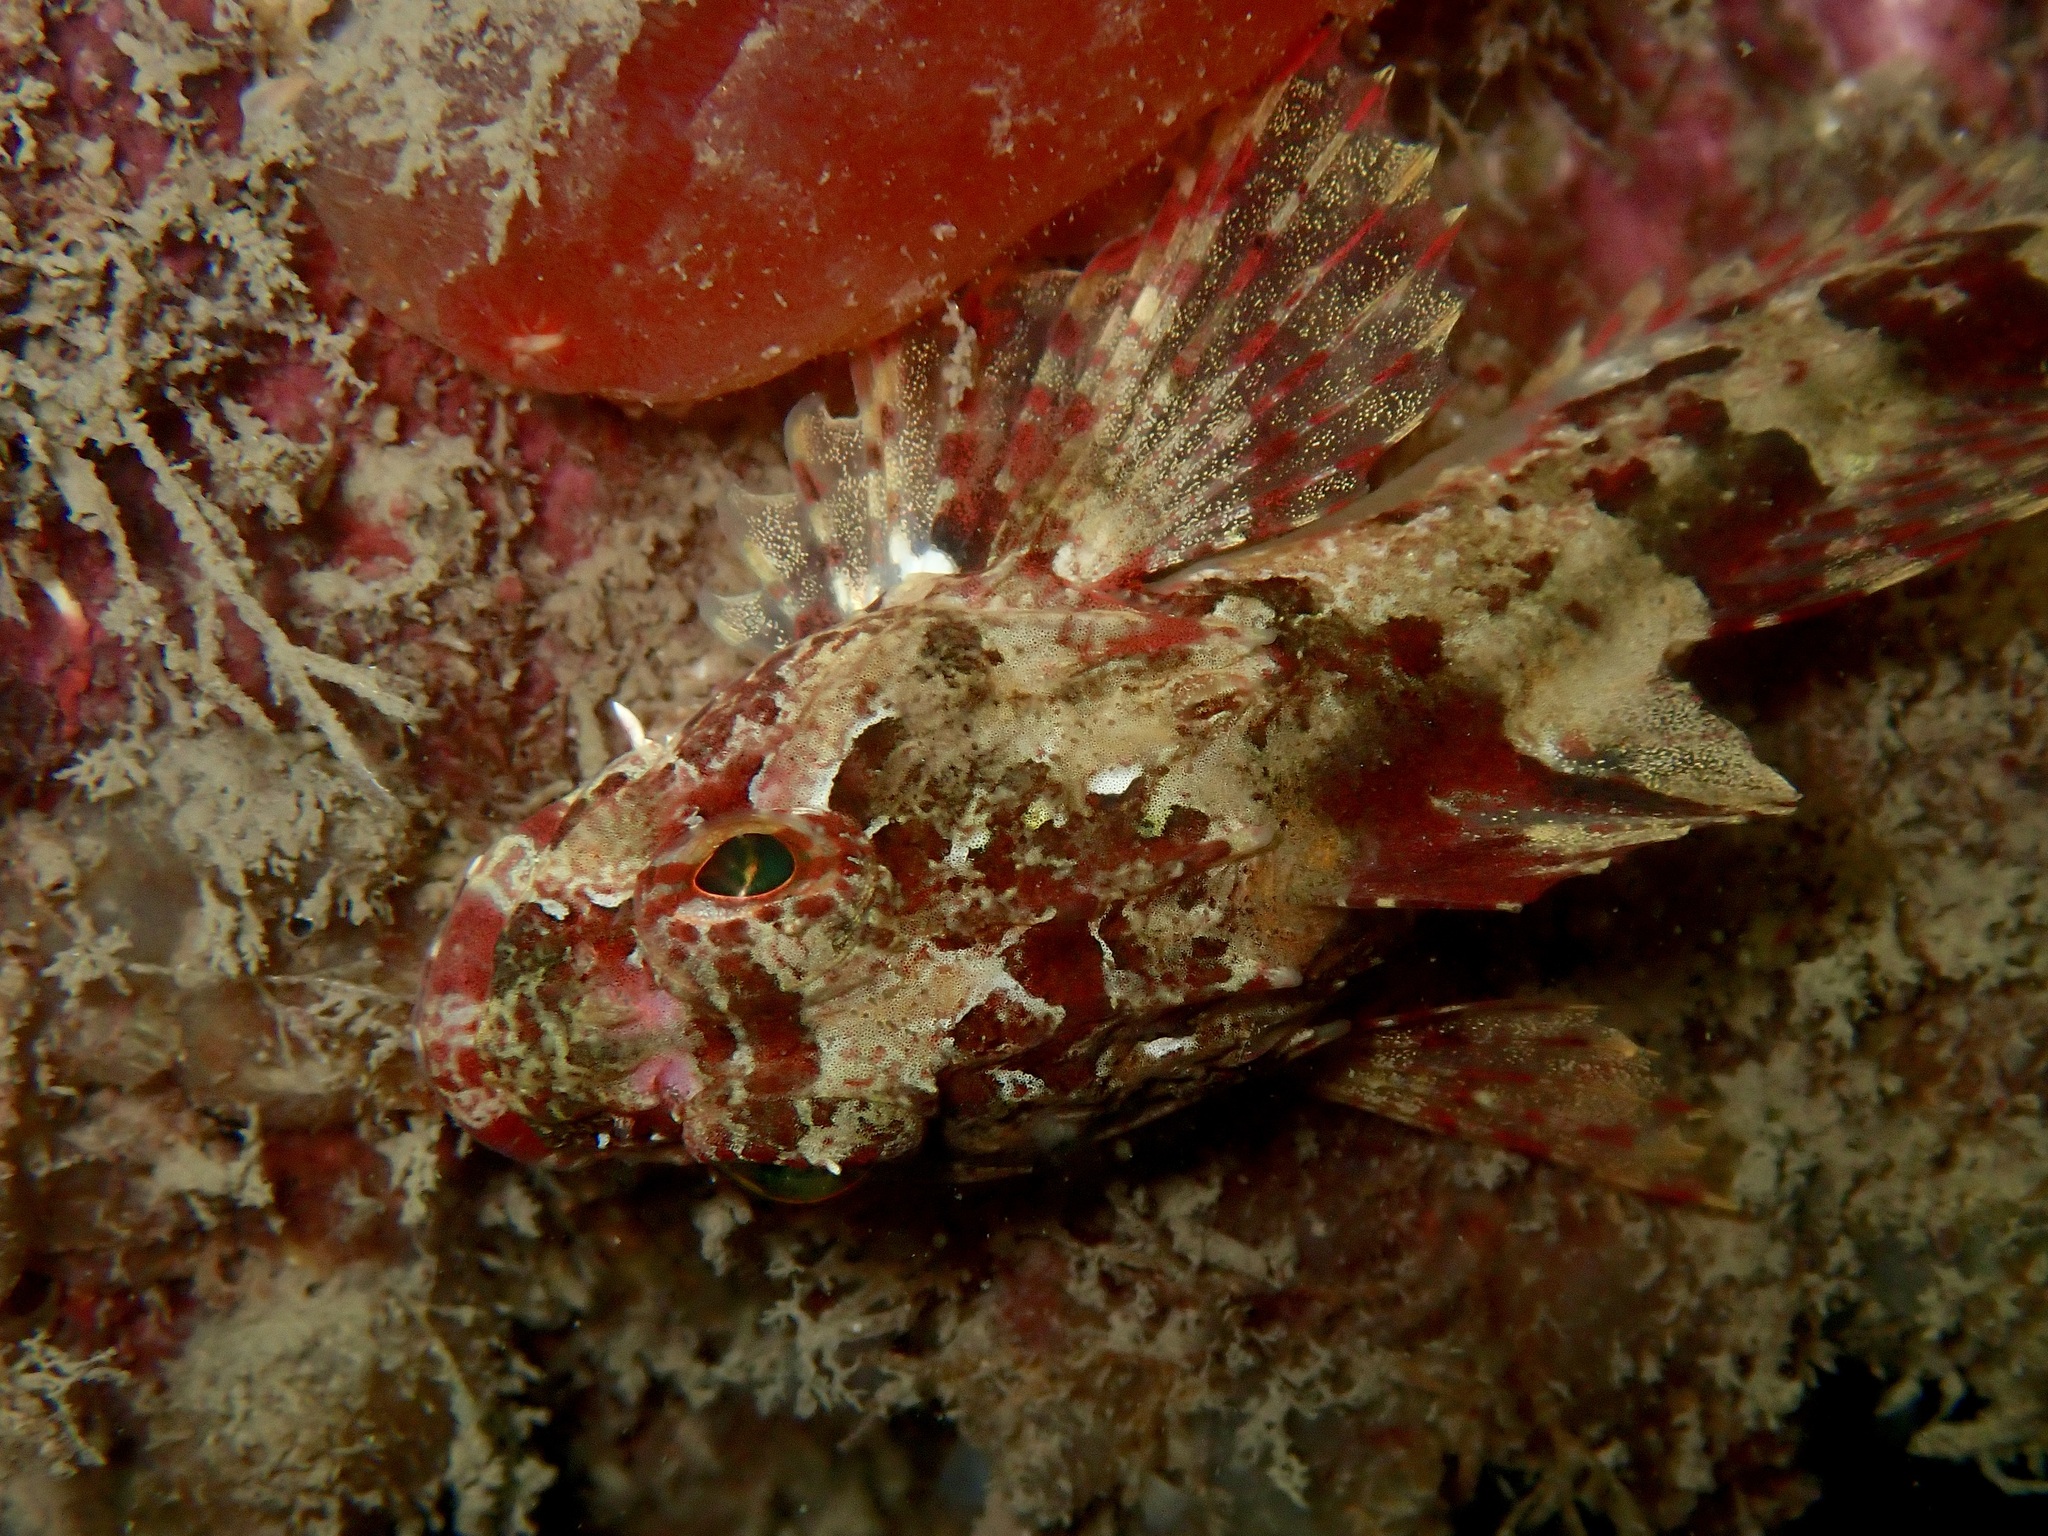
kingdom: Animalia
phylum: Chordata
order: Scorpaeniformes
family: Cottidae
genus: Taurulus
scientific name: Taurulus bubalis
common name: Sea scorpion
